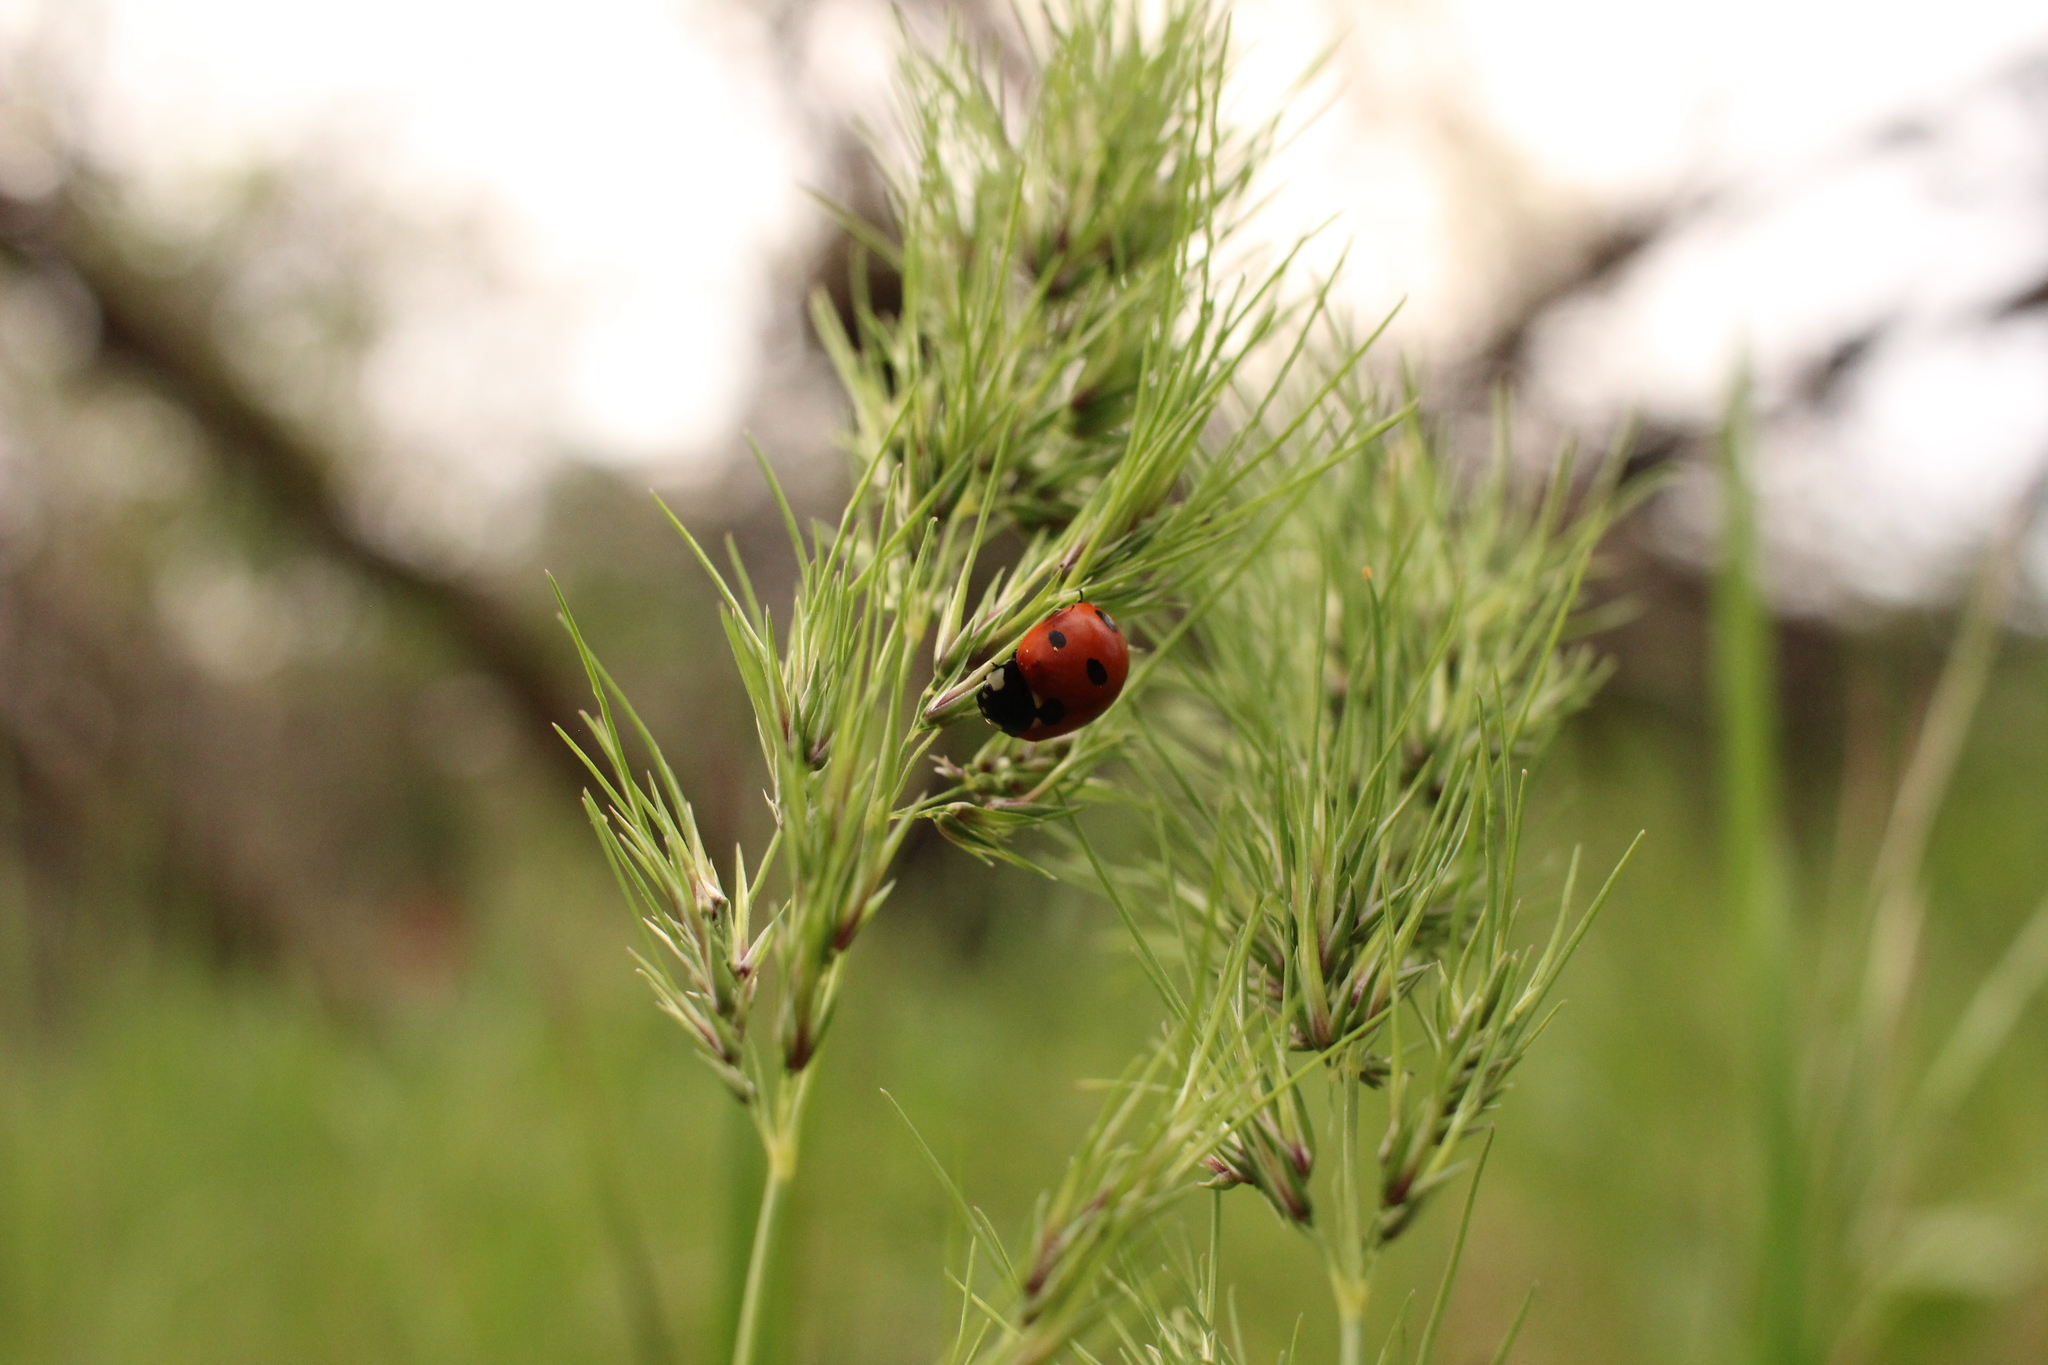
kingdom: Animalia
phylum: Arthropoda
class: Insecta
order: Coleoptera
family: Coccinellidae
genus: Coccinella
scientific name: Coccinella septempunctata
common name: Sevenspotted lady beetle
